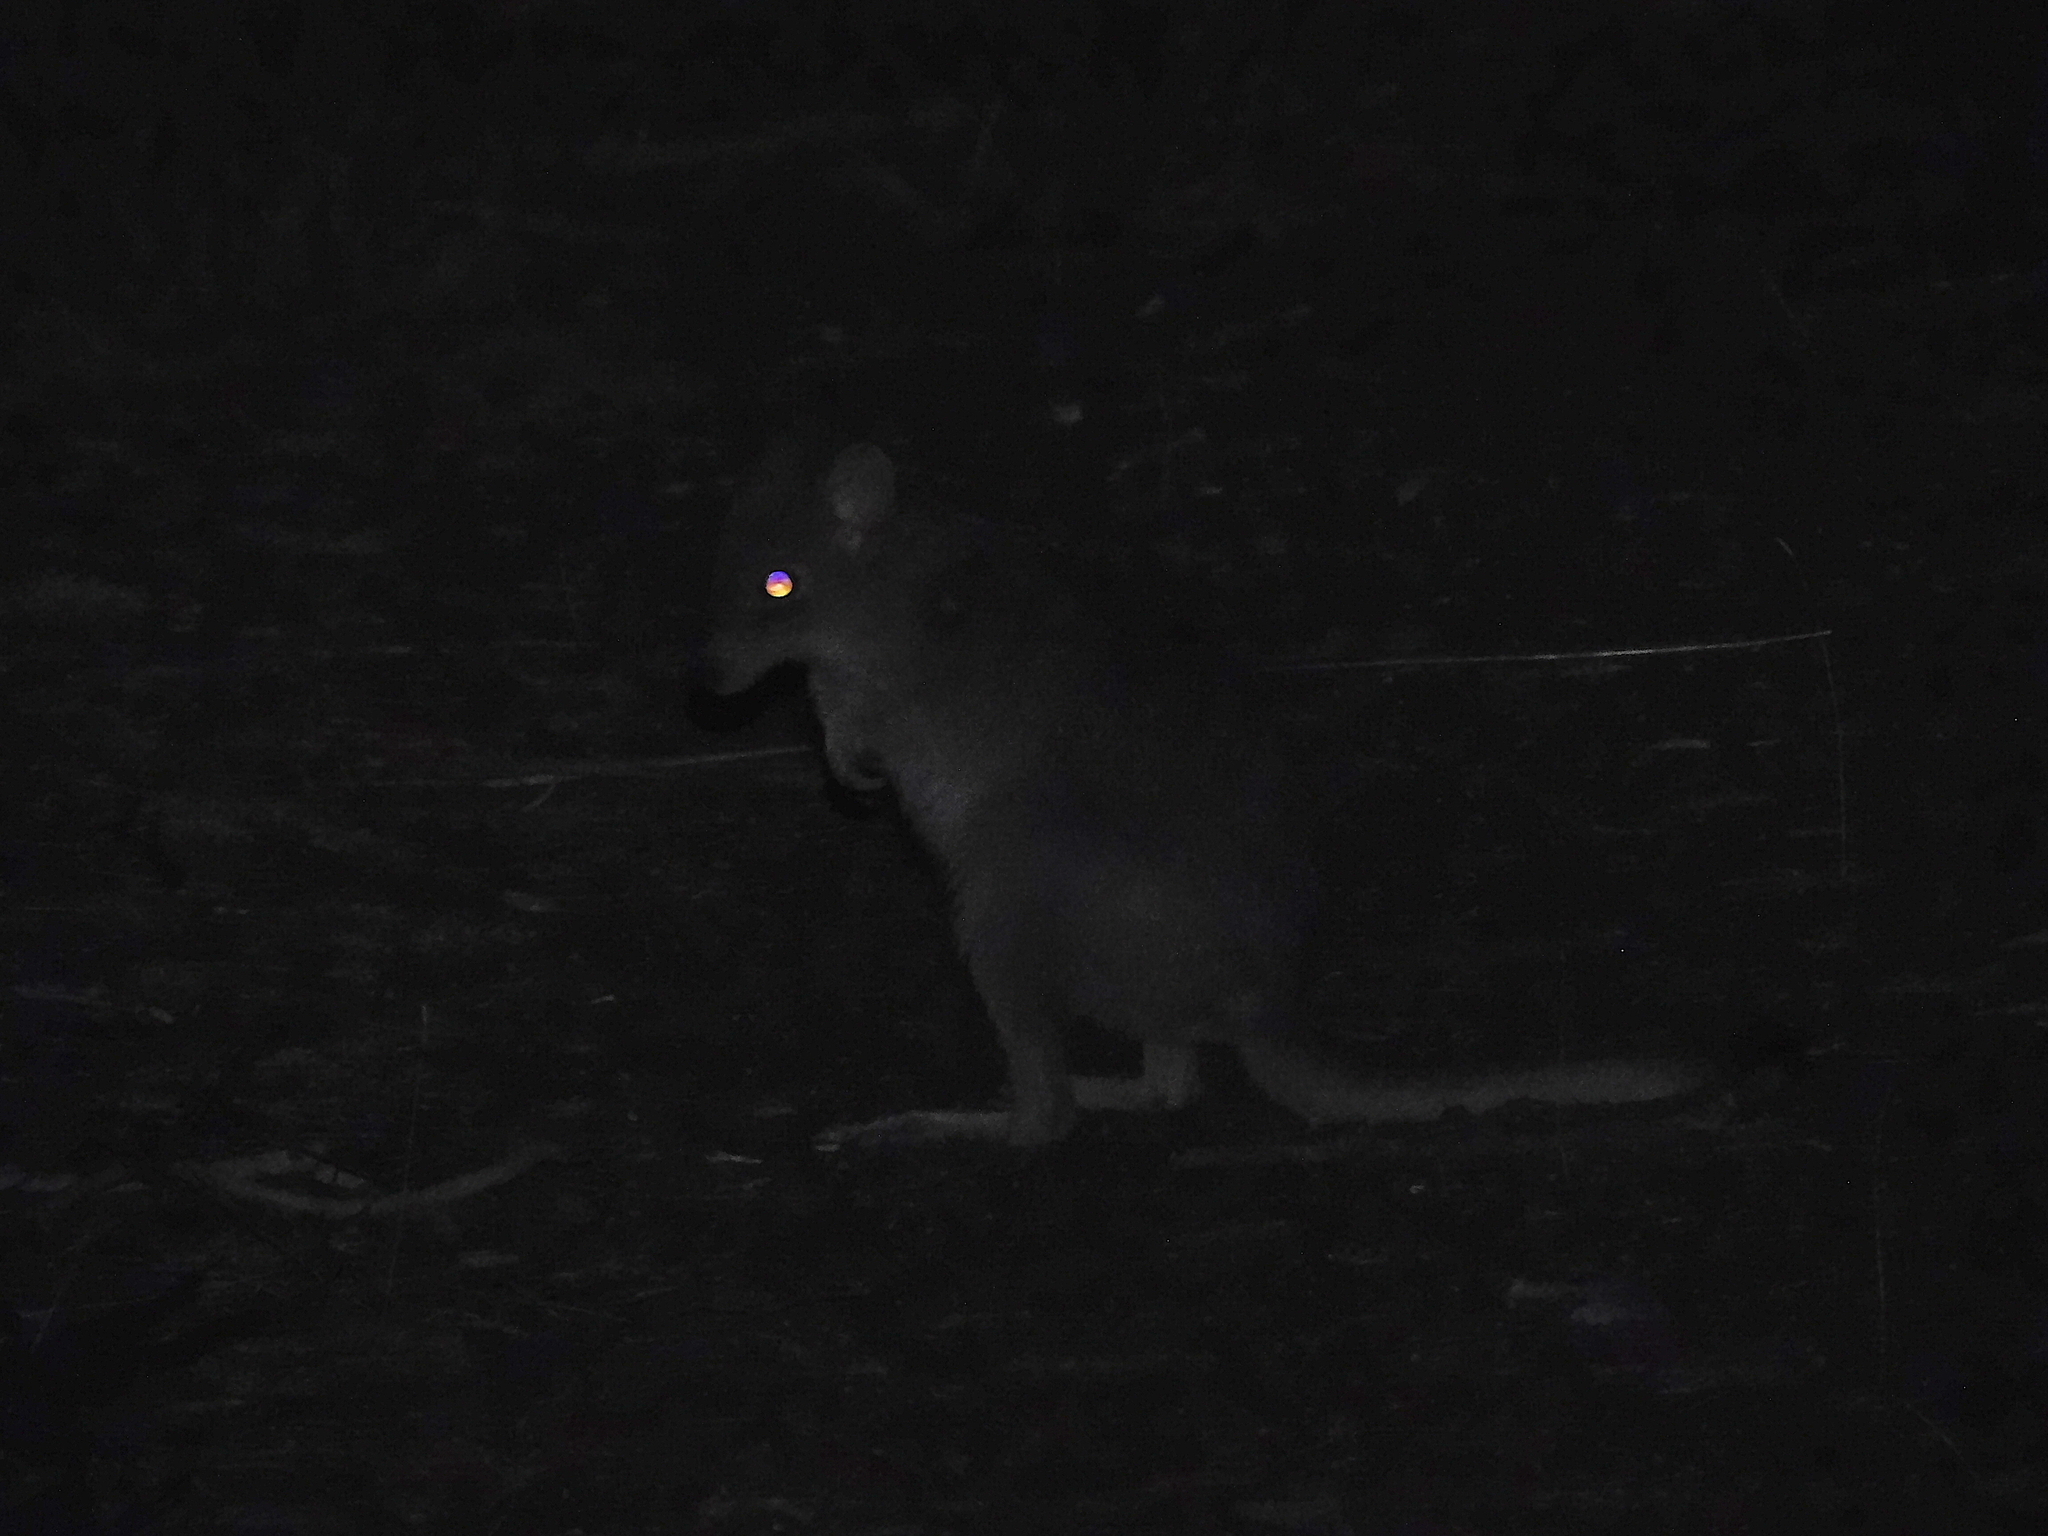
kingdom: Animalia
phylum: Chordata
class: Mammalia
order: Diprotodontia
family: Potoroidae
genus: Bettongia
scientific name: Bettongia gaimardi
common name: Eastern bettong
